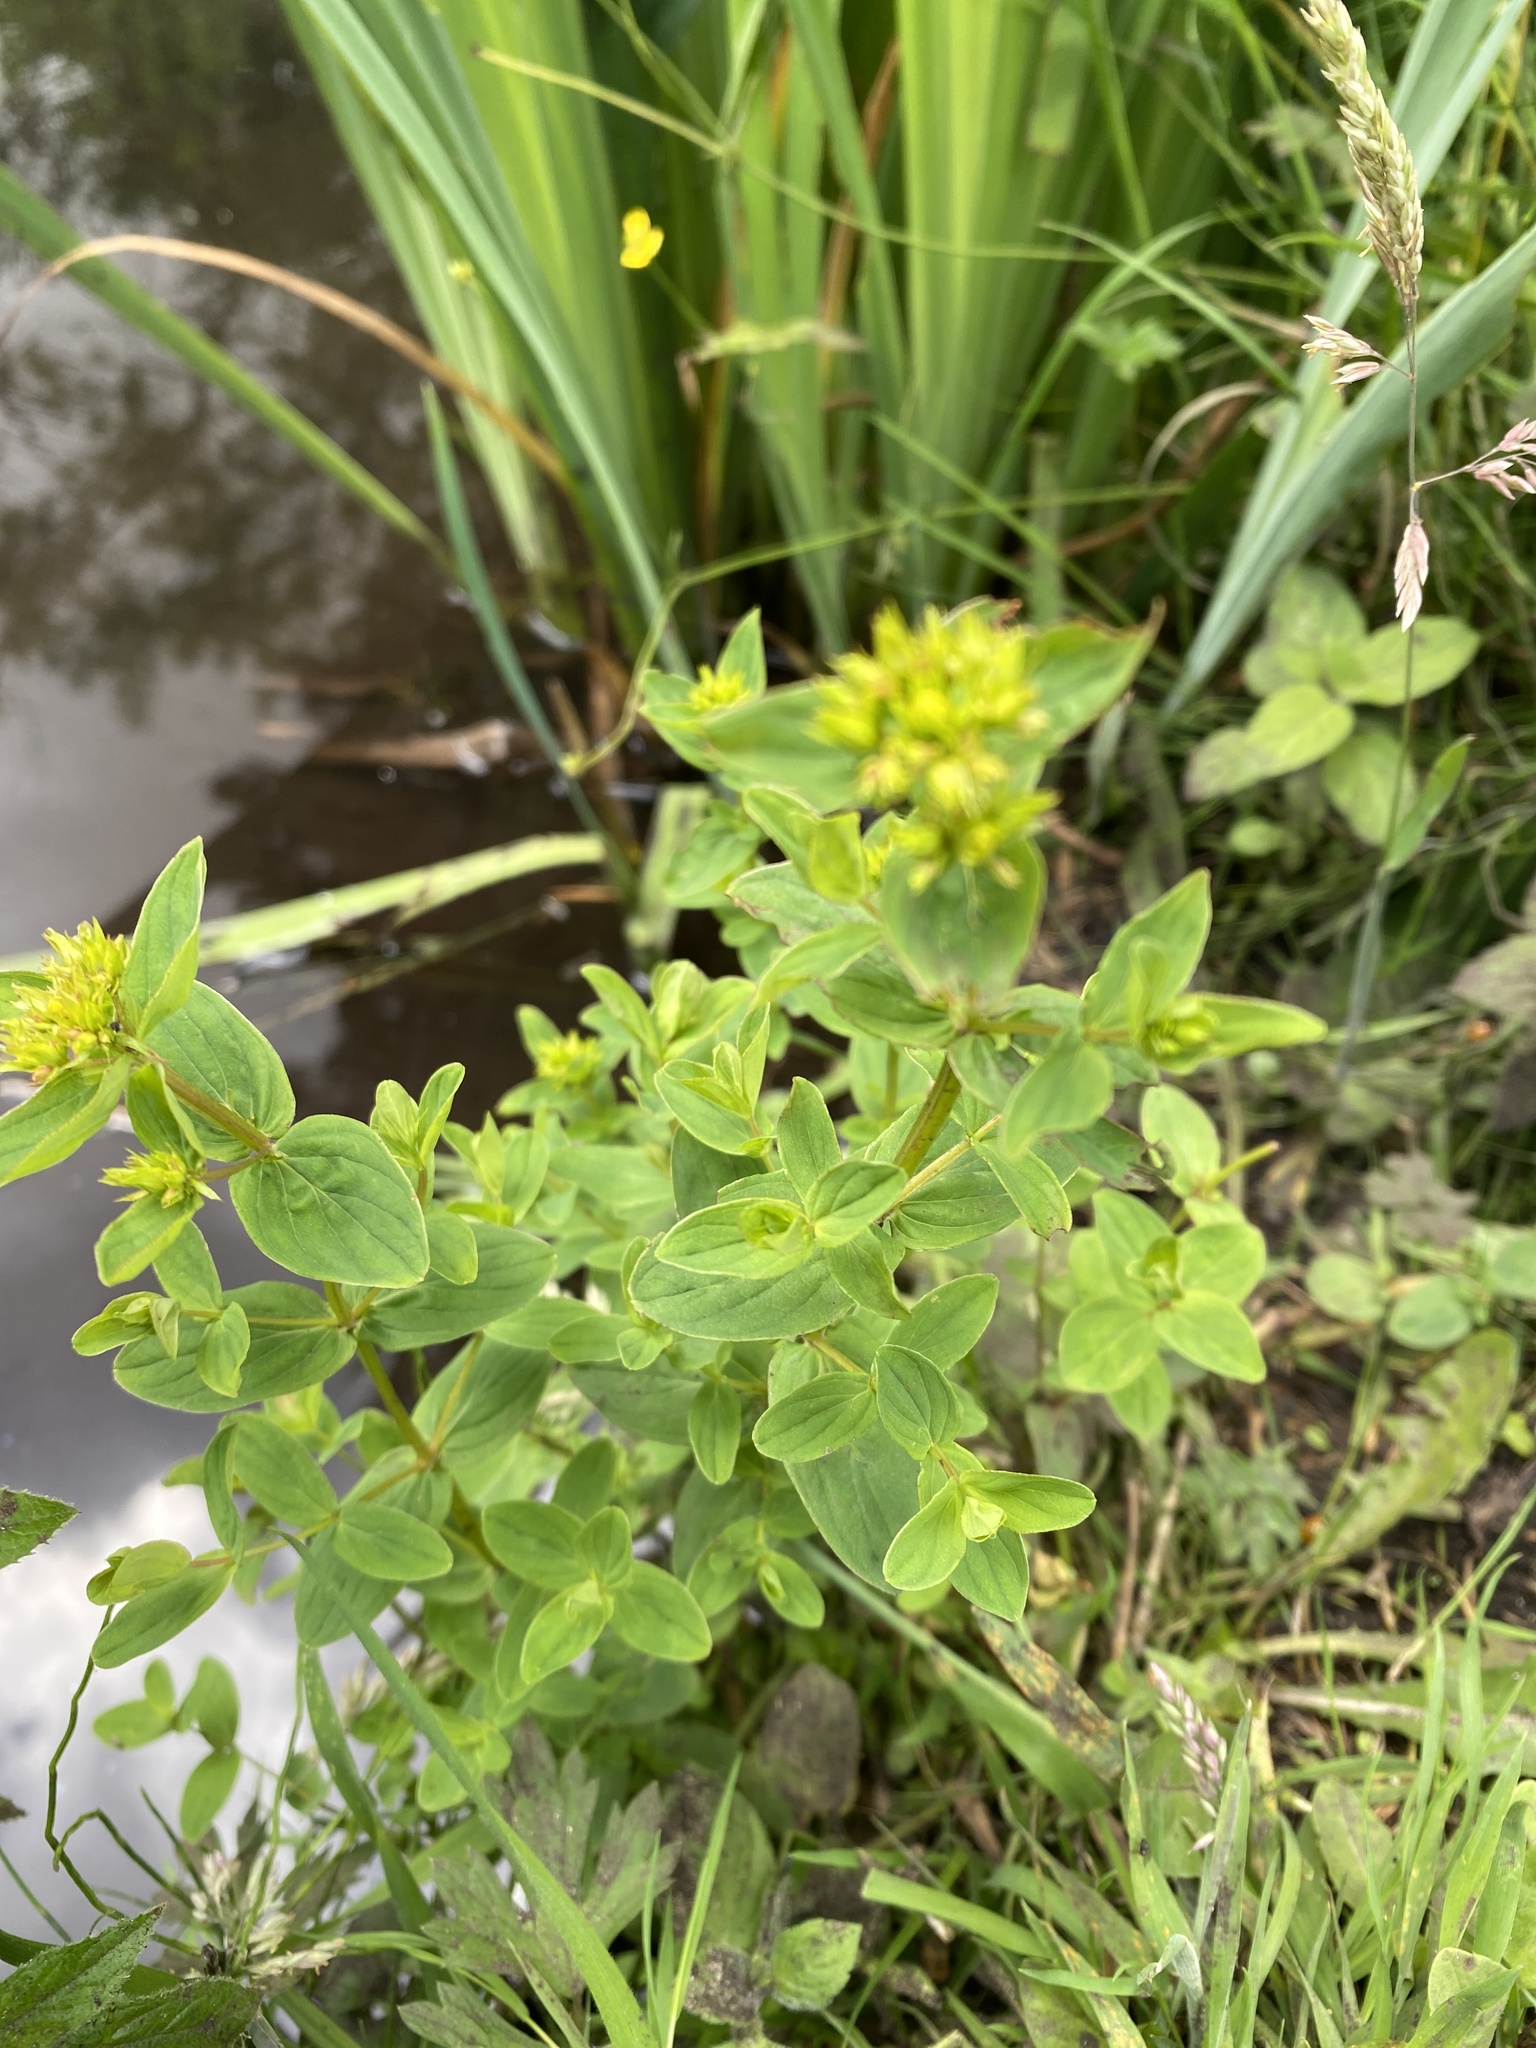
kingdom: Plantae
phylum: Tracheophyta
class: Magnoliopsida
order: Malpighiales
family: Hypericaceae
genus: Hypericum
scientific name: Hypericum tetrapterum
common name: Square-stalked st. john's-wort
